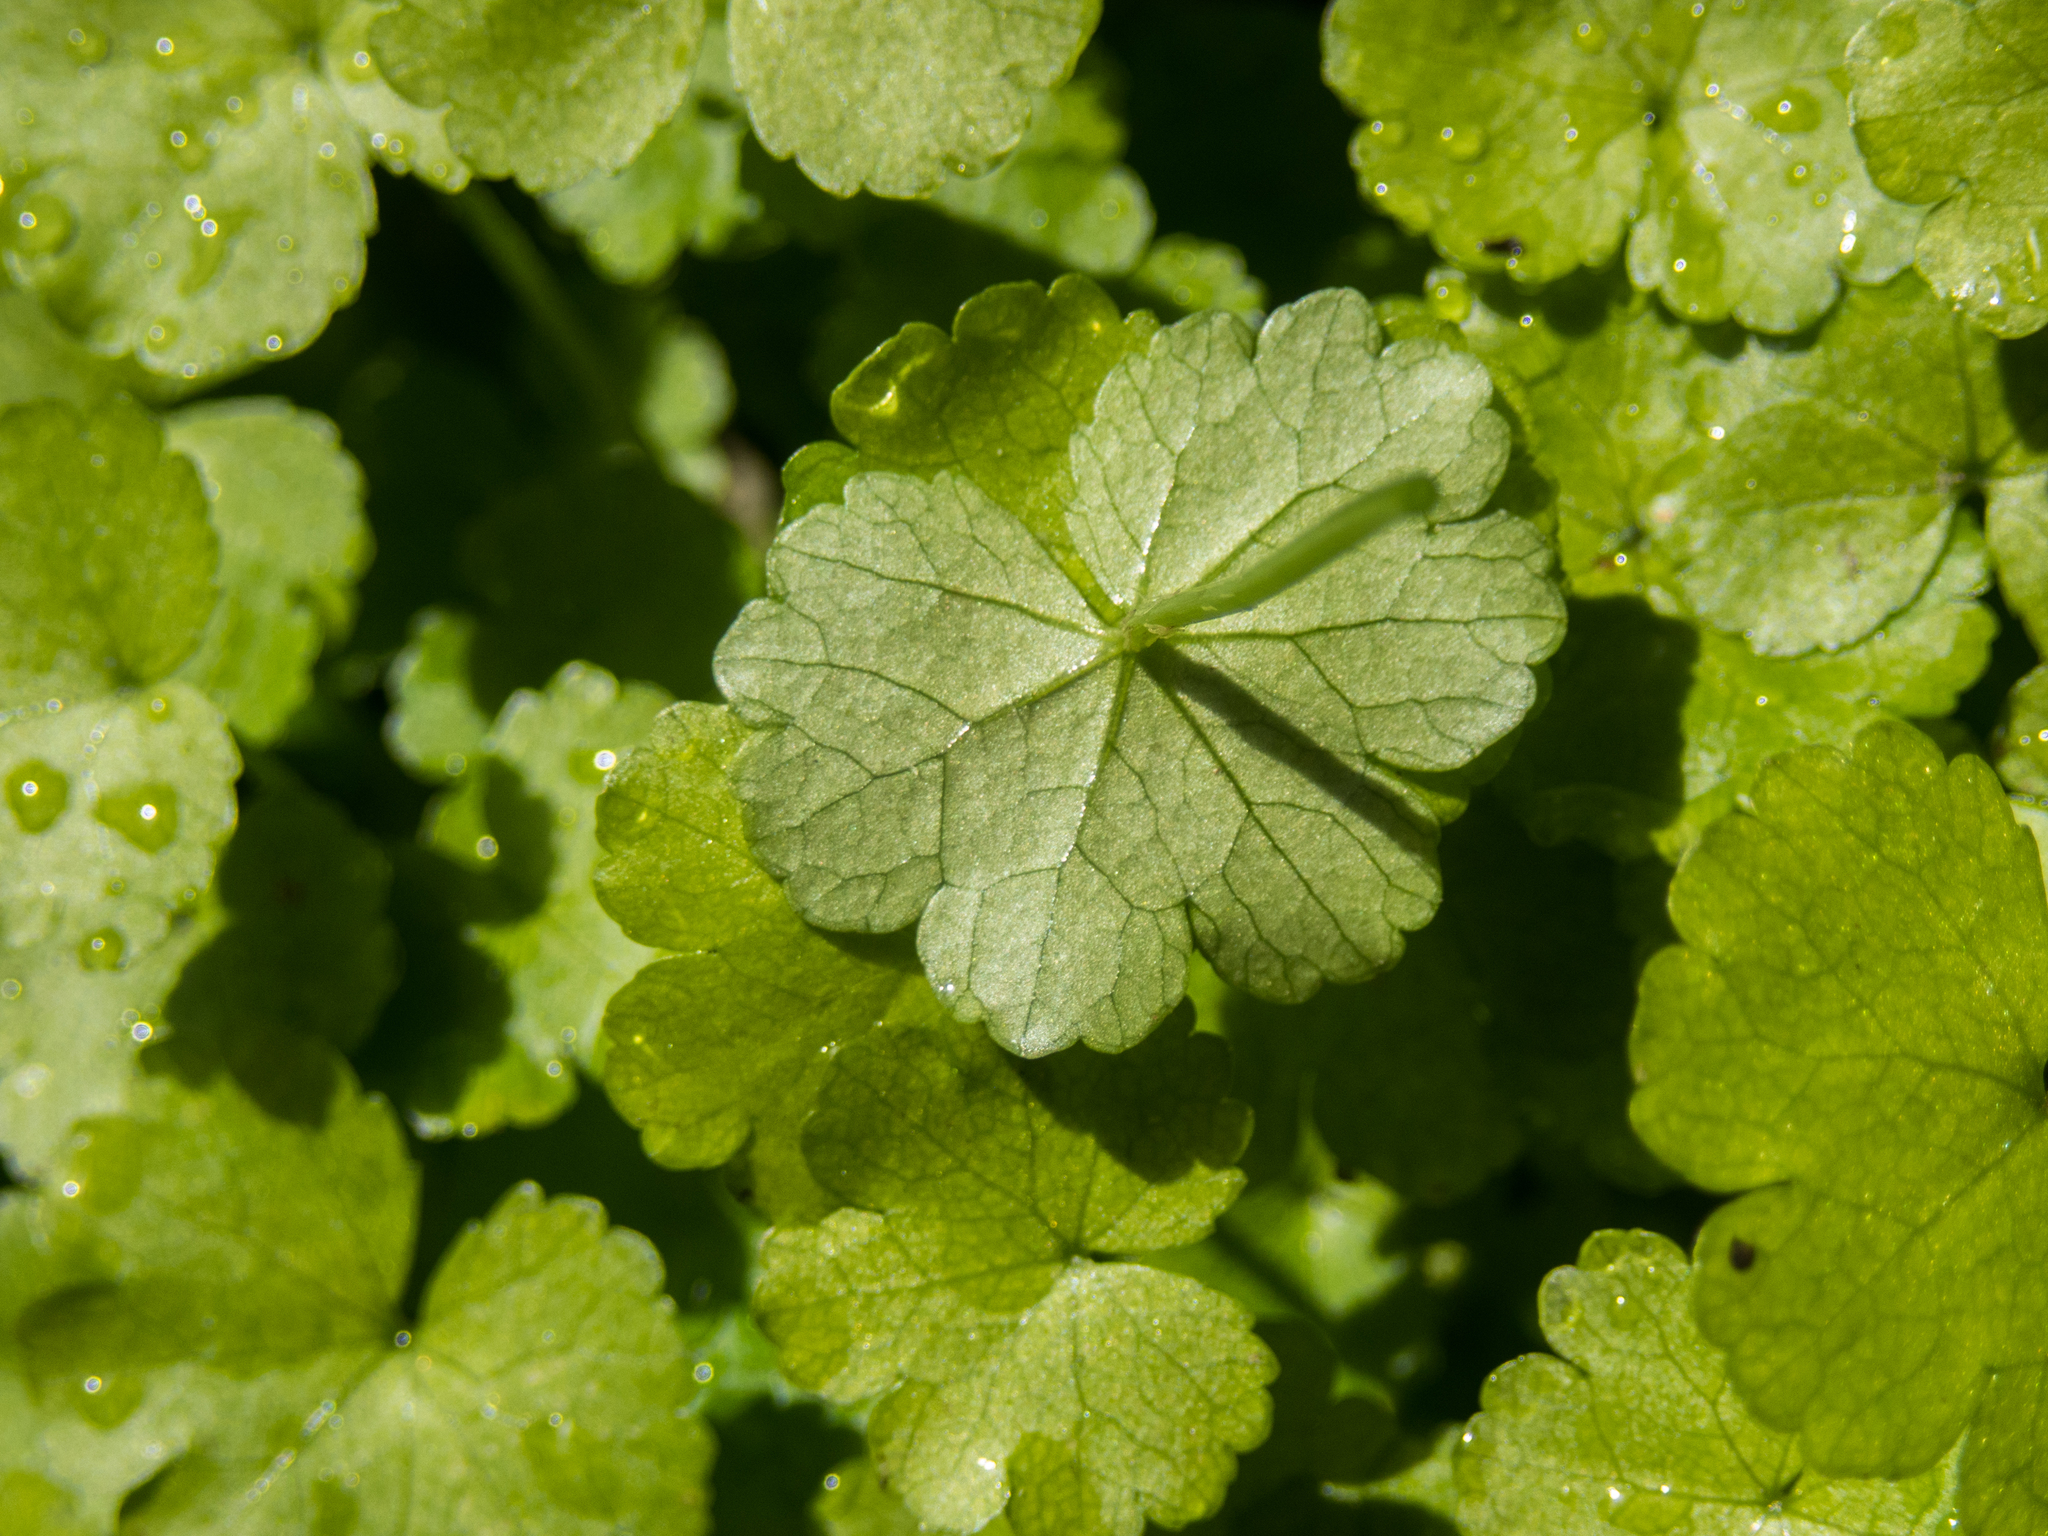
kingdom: Plantae
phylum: Tracheophyta
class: Magnoliopsida
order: Apiales
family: Araliaceae
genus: Hydrocotyle
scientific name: Hydrocotyle heteromeria
